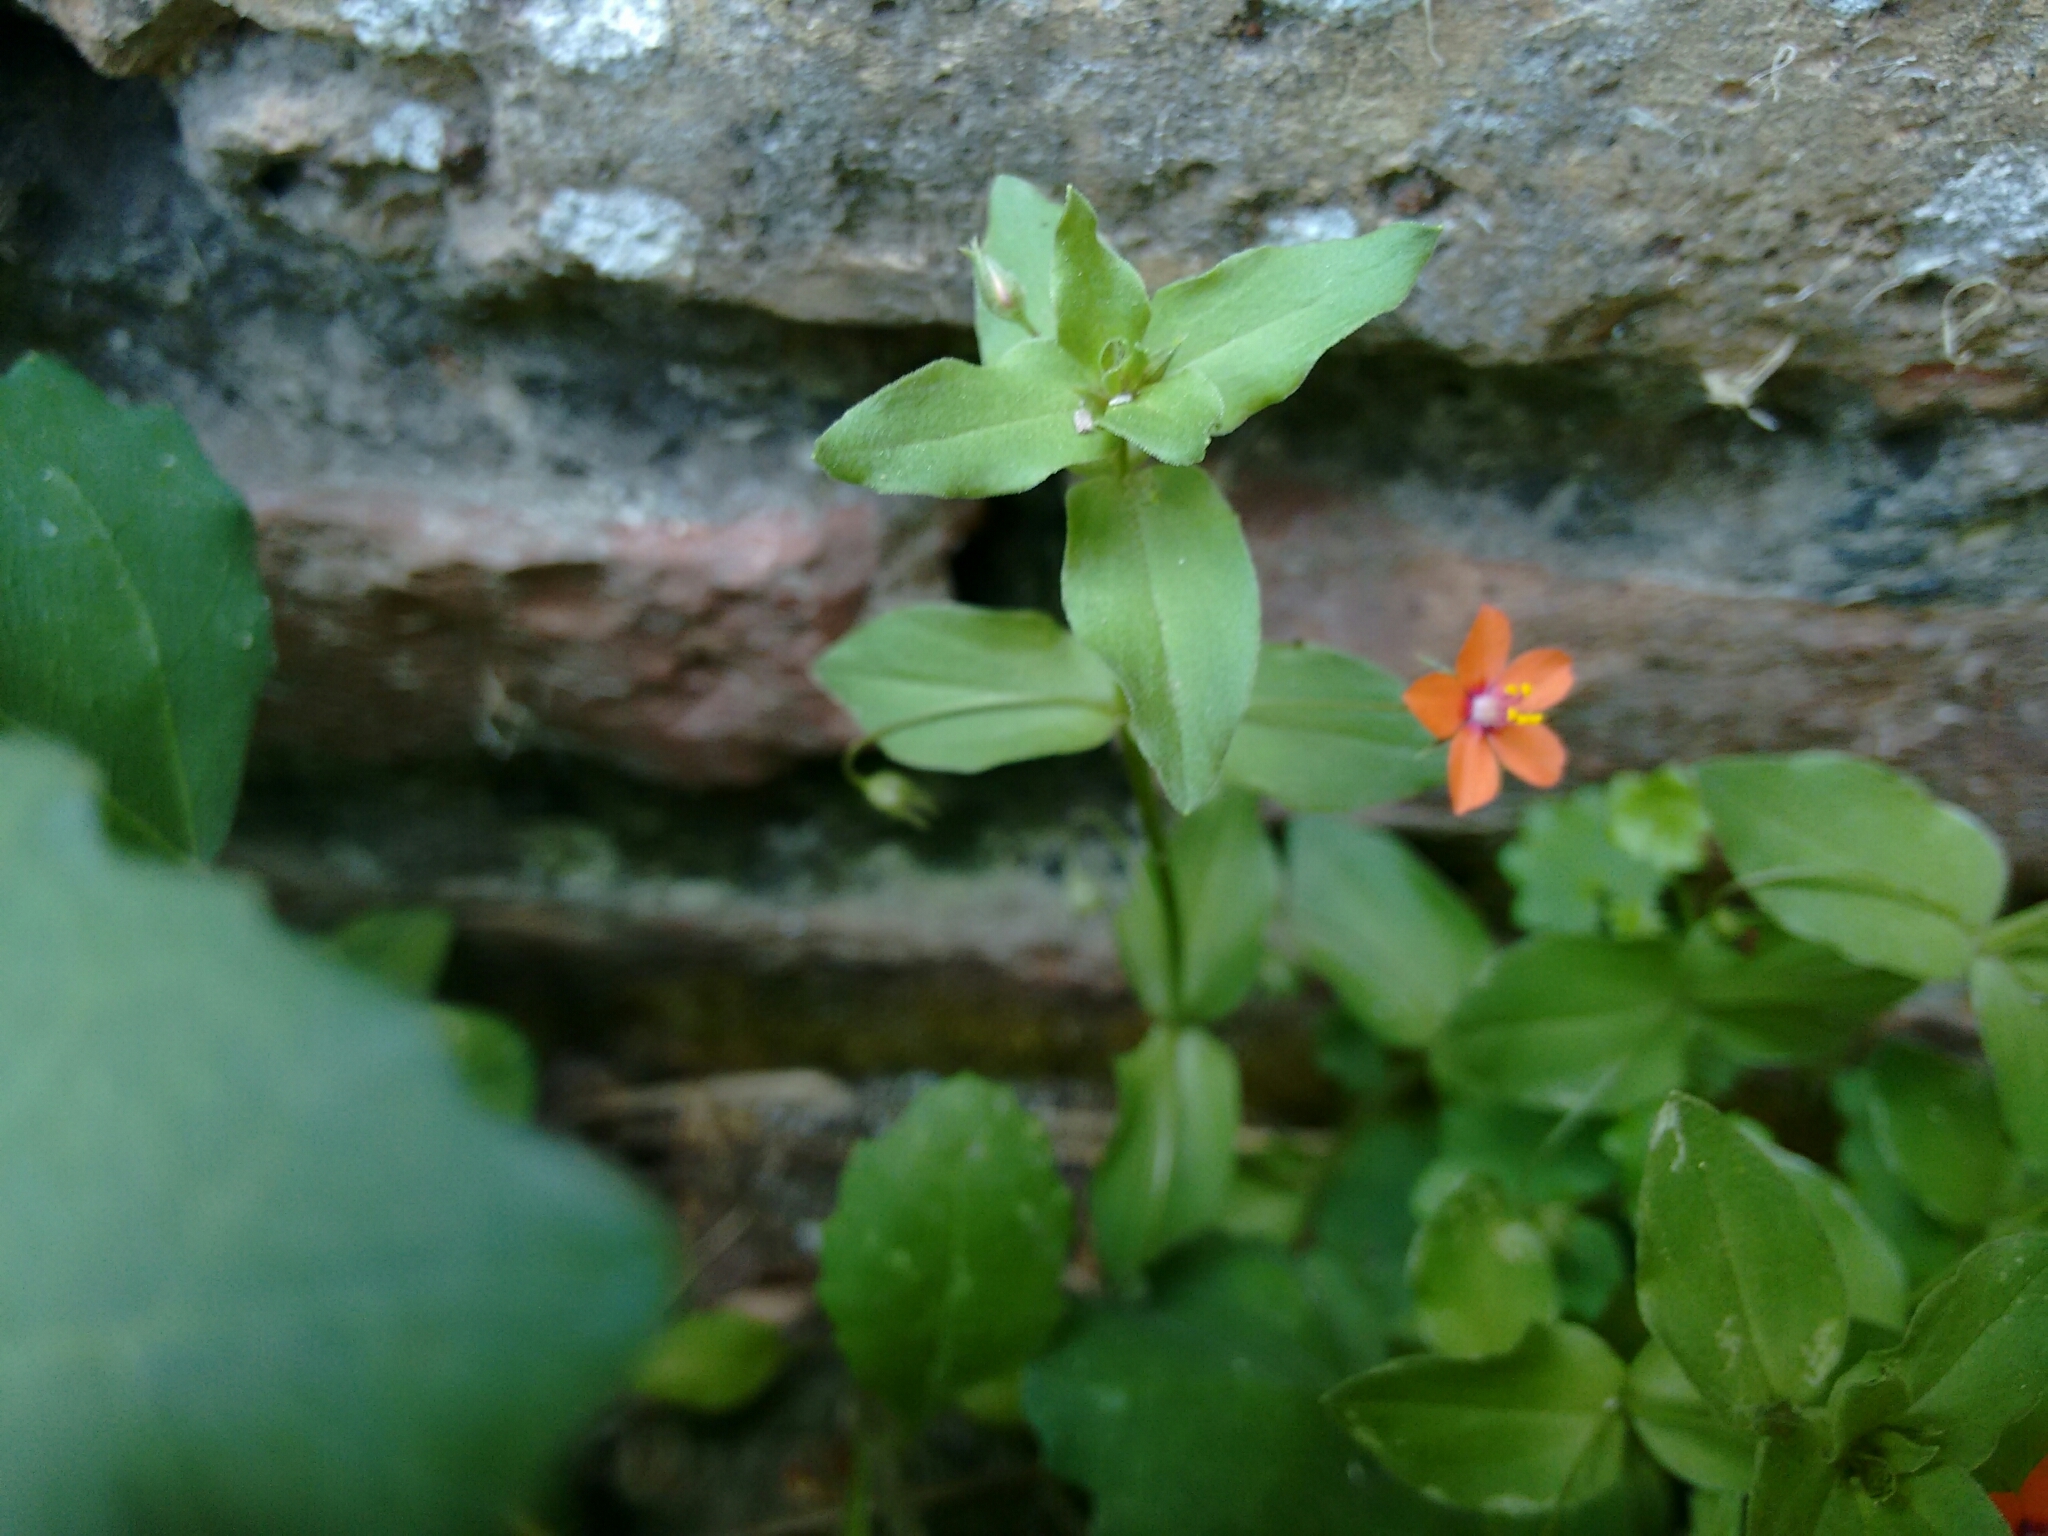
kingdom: Plantae
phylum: Tracheophyta
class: Magnoliopsida
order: Ericales
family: Primulaceae
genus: Lysimachia
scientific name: Lysimachia arvensis
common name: Scarlet pimpernel
